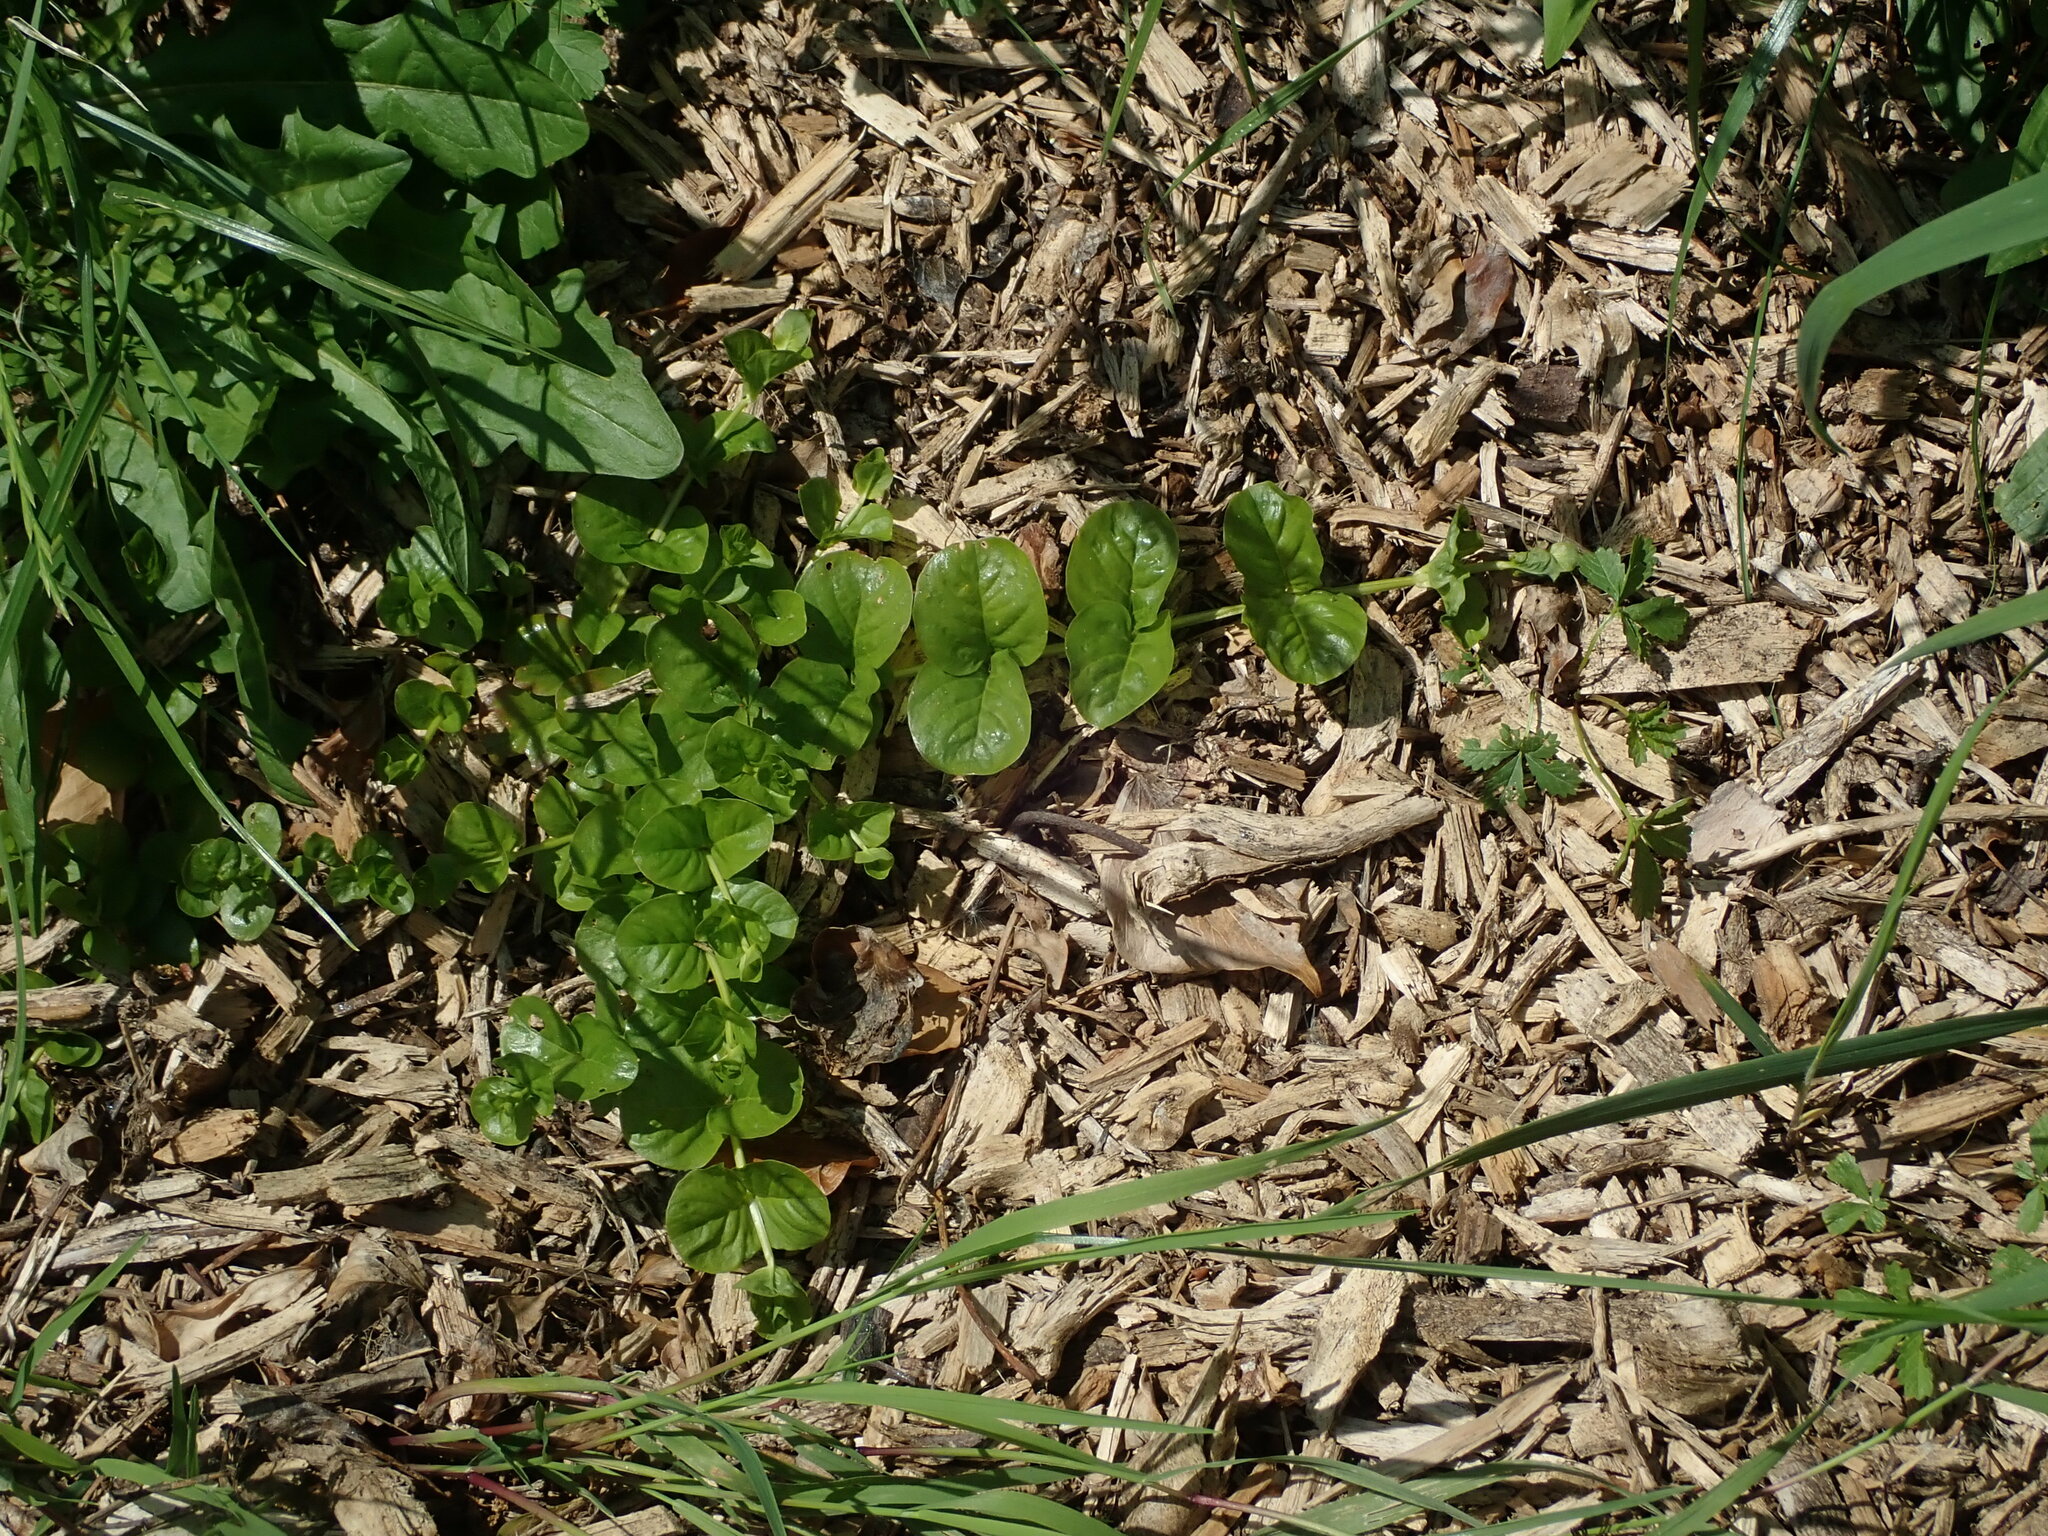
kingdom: Plantae
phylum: Tracheophyta
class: Magnoliopsida
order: Ericales
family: Primulaceae
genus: Lysimachia
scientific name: Lysimachia nummularia
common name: Moneywort
